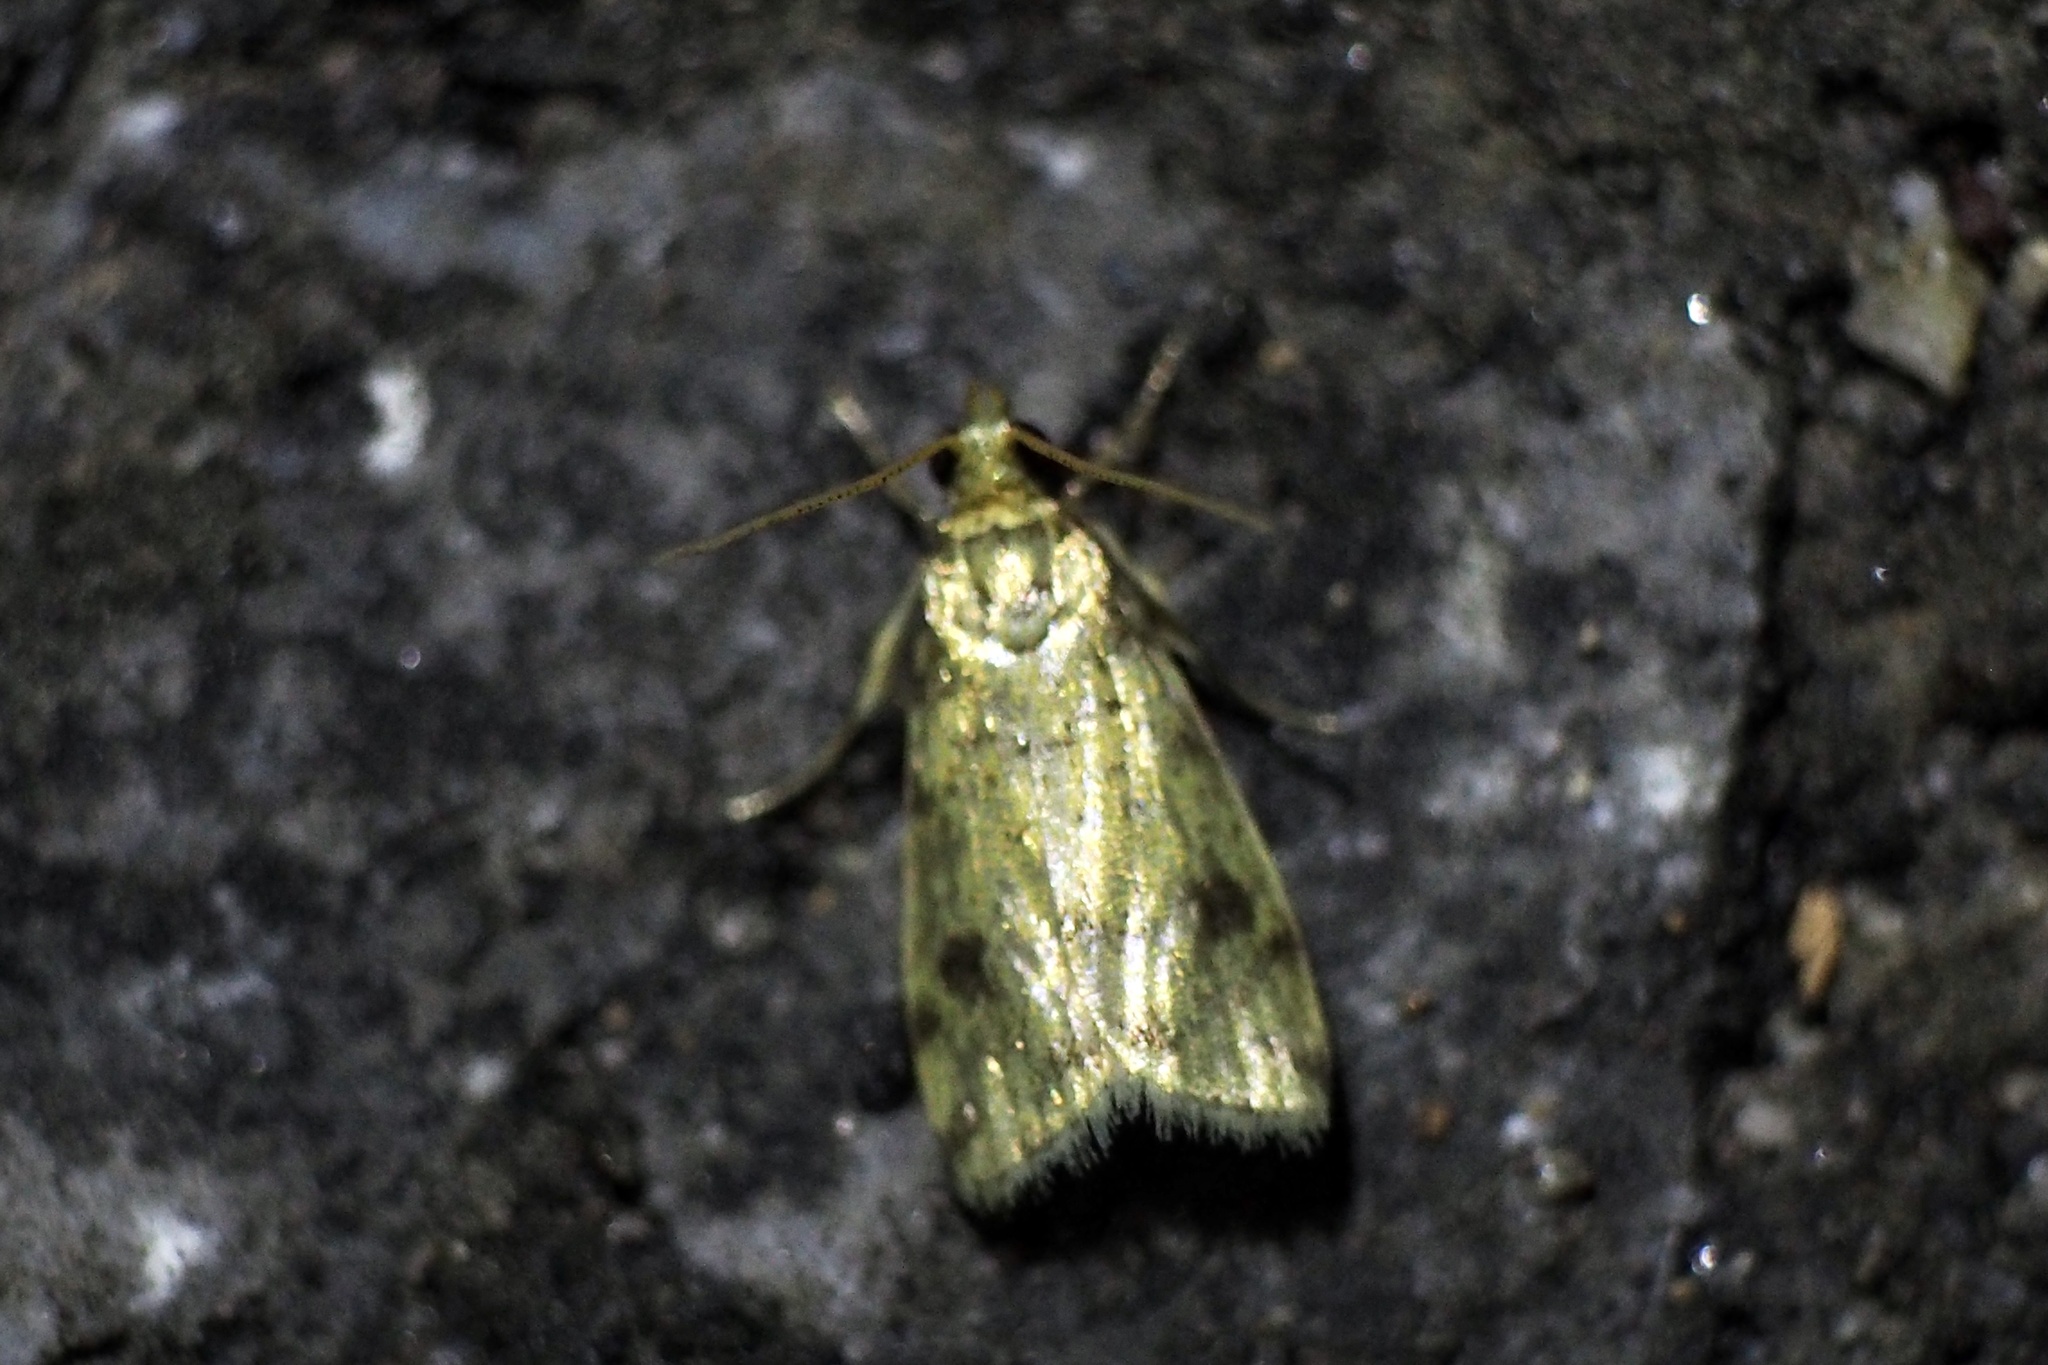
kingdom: Animalia
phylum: Arthropoda
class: Insecta
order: Lepidoptera
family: Crambidae
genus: Micraglossa
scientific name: Micraglossa aureata
